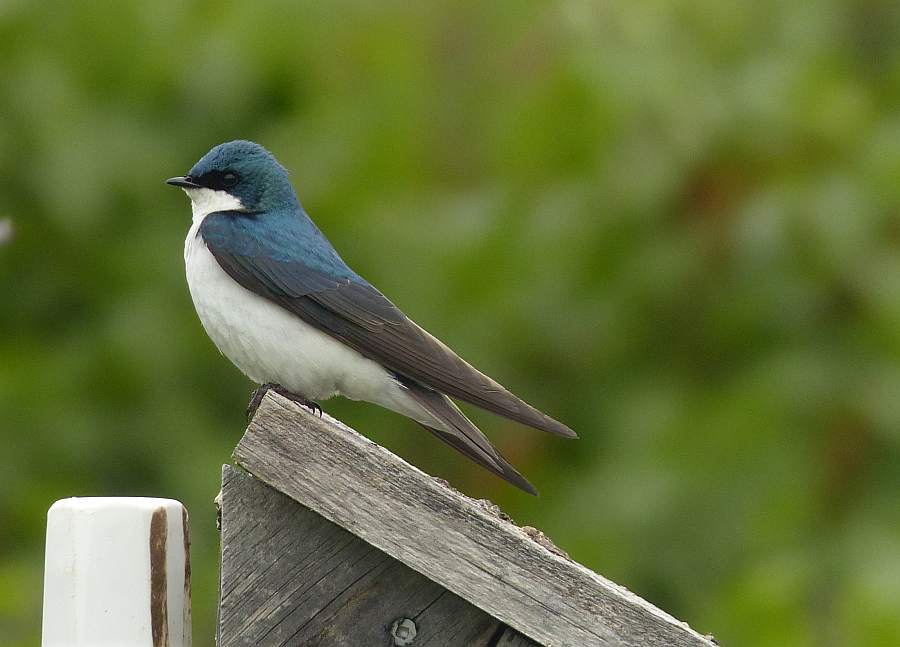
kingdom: Animalia
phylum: Chordata
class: Aves
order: Passeriformes
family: Hirundinidae
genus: Tachycineta
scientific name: Tachycineta bicolor
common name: Tree swallow
